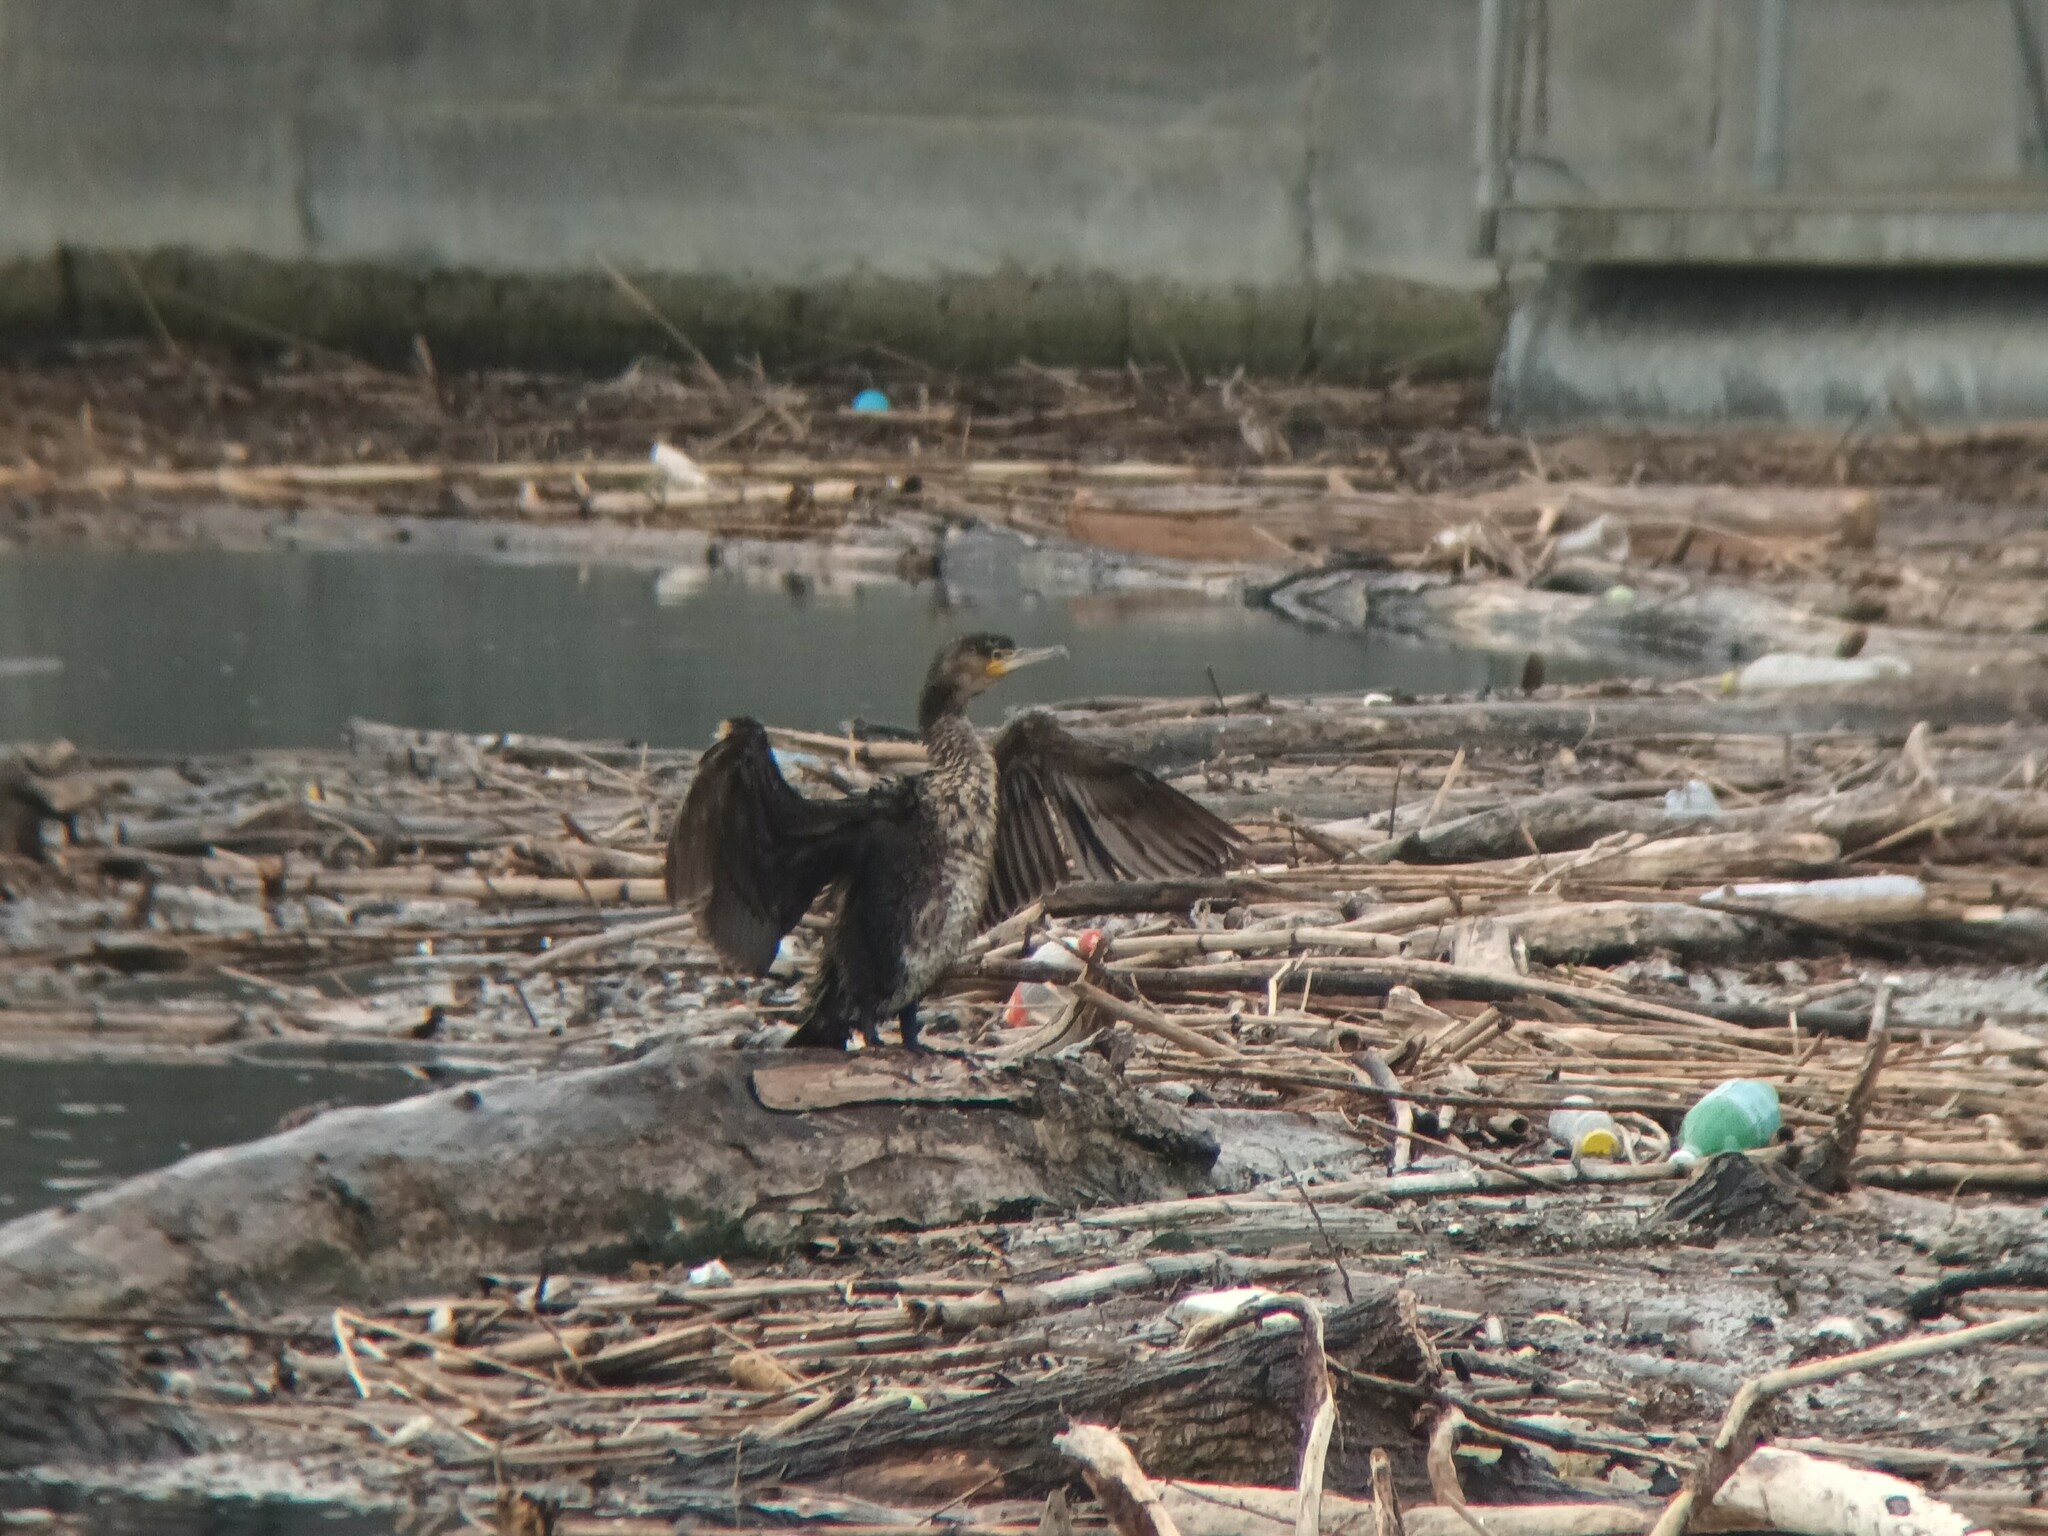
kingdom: Animalia
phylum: Chordata
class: Aves
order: Suliformes
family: Phalacrocoracidae
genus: Phalacrocorax
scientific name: Phalacrocorax carbo
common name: Great cormorant
